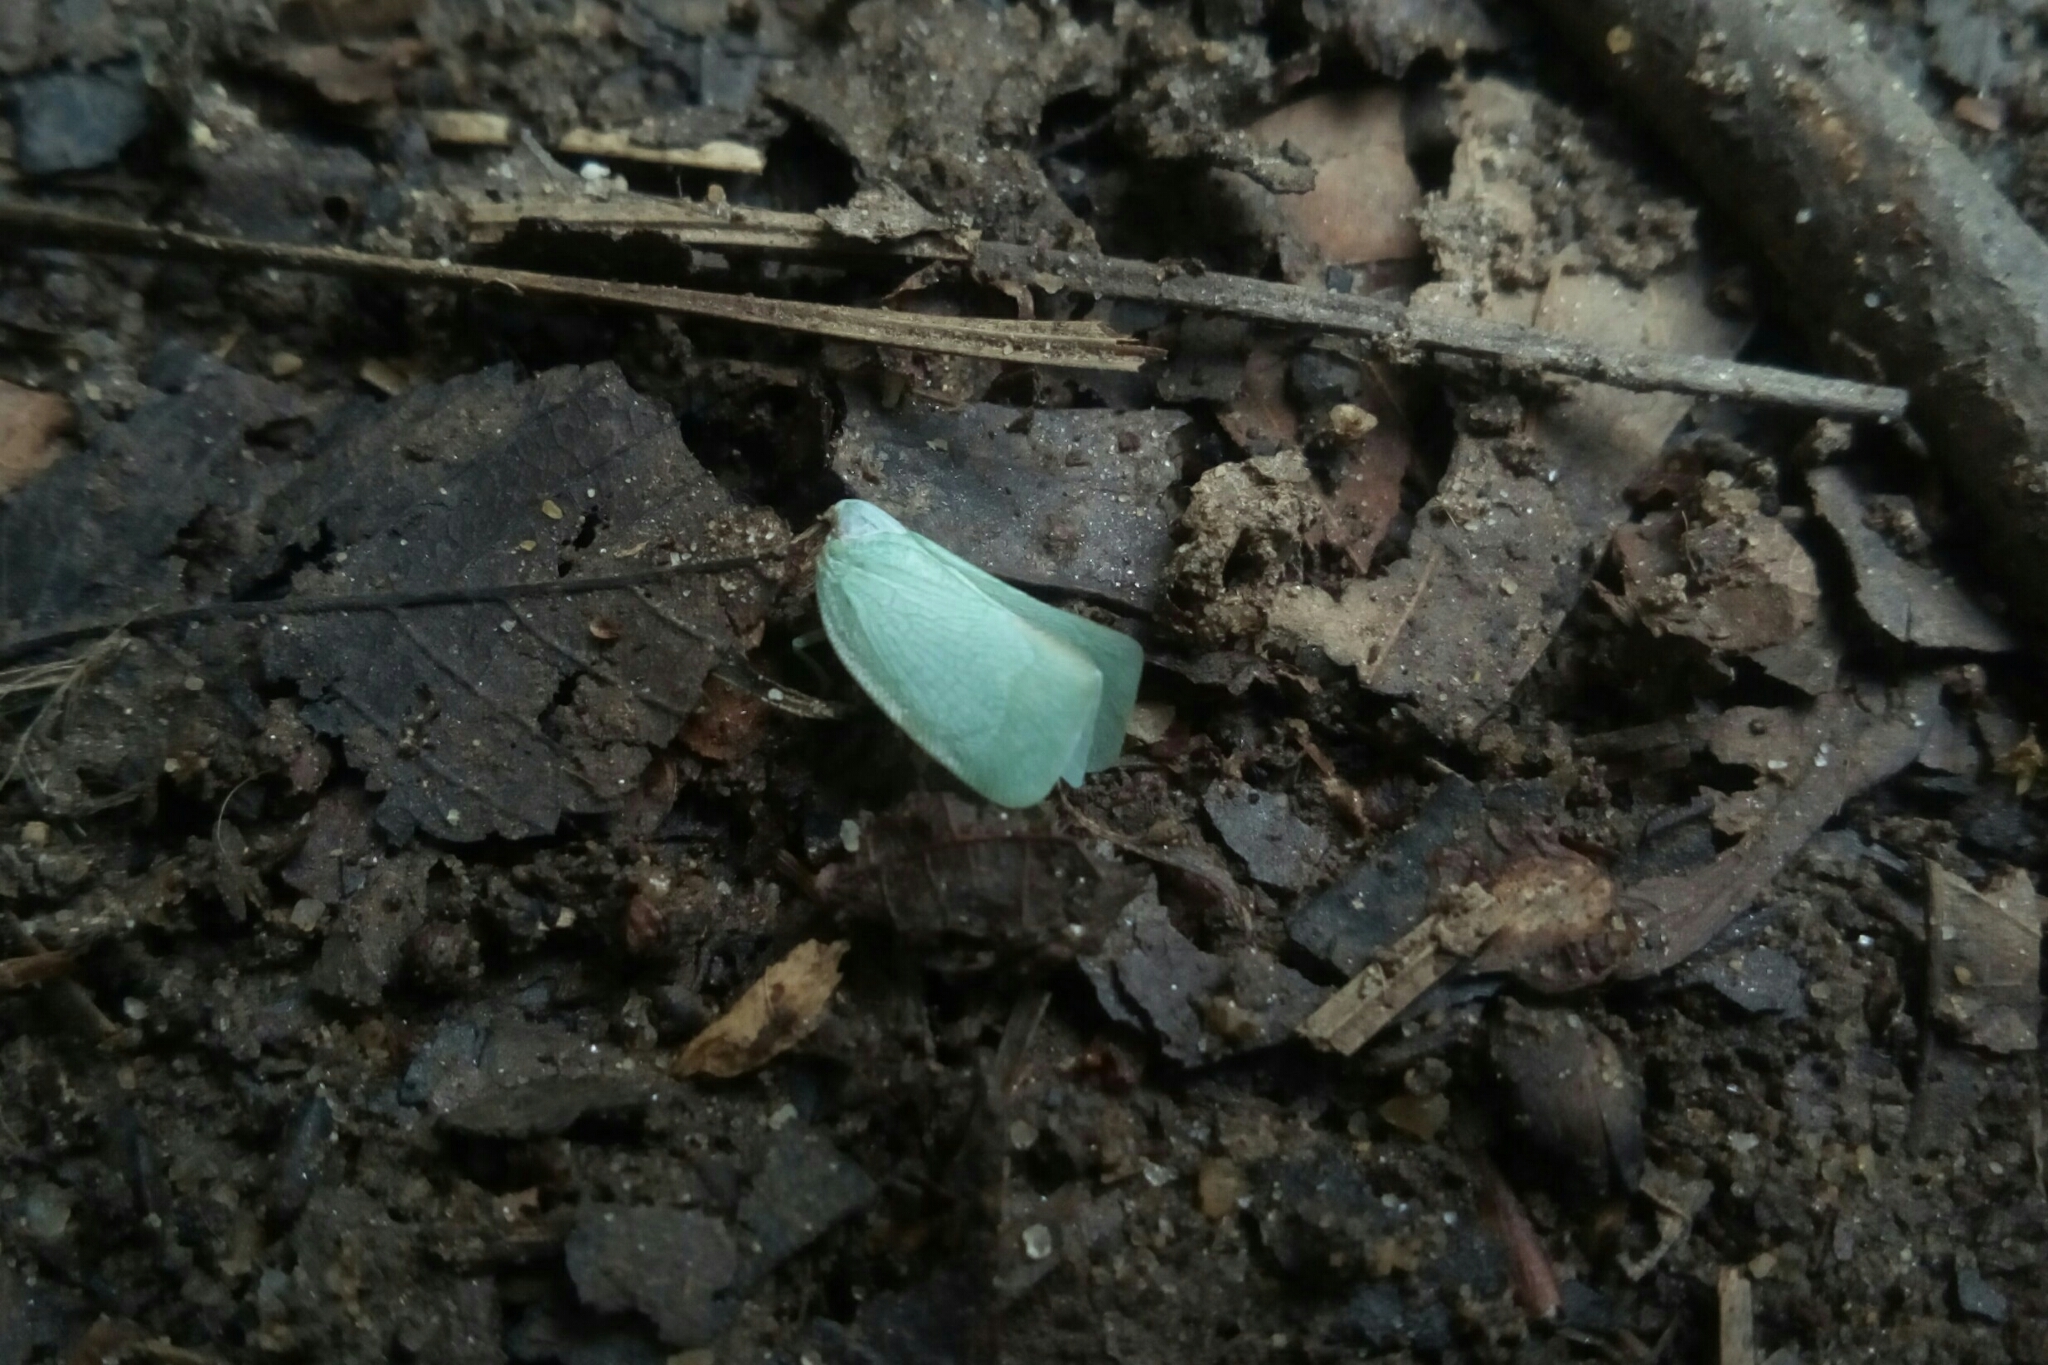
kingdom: Animalia
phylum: Arthropoda
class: Insecta
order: Hemiptera
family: Flatidae
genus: Flatormenis
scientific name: Flatormenis proxima
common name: Northern flatid planthopper
